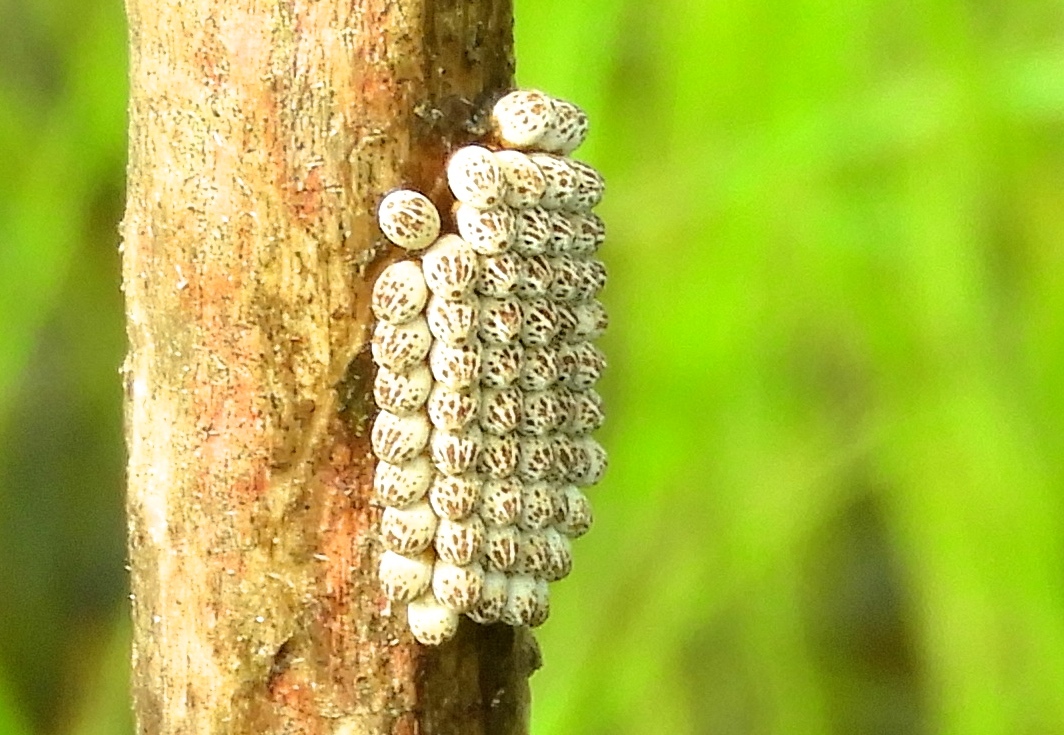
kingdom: Animalia
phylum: Arthropoda
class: Insecta
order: Hemiptera
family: Belostomatidae
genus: Lethocerus
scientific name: Lethocerus
